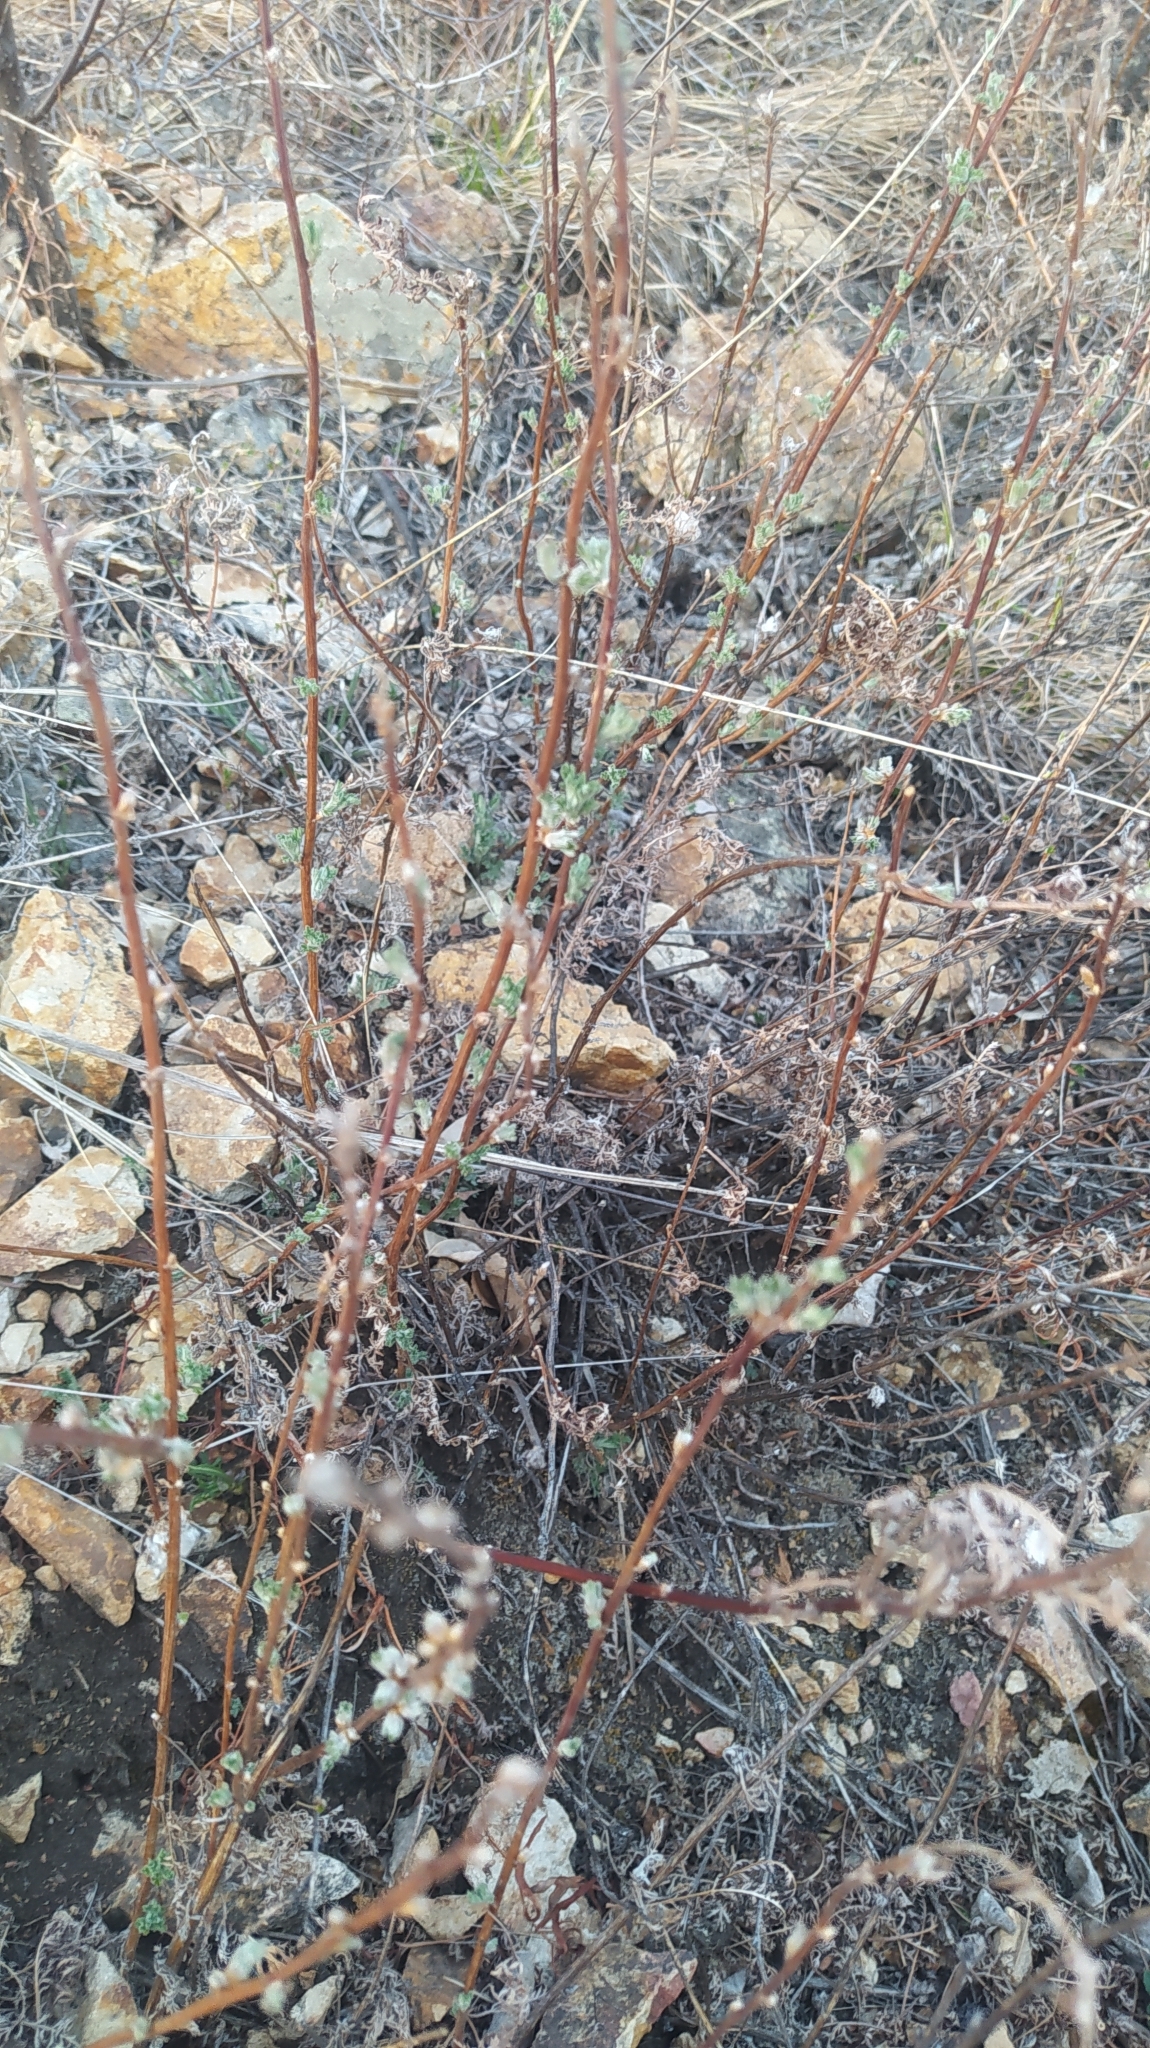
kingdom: Plantae
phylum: Tracheophyta
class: Magnoliopsida
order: Asterales
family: Asteraceae
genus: Artemisia
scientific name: Artemisia gmelinii
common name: Gmelin's wormwood
